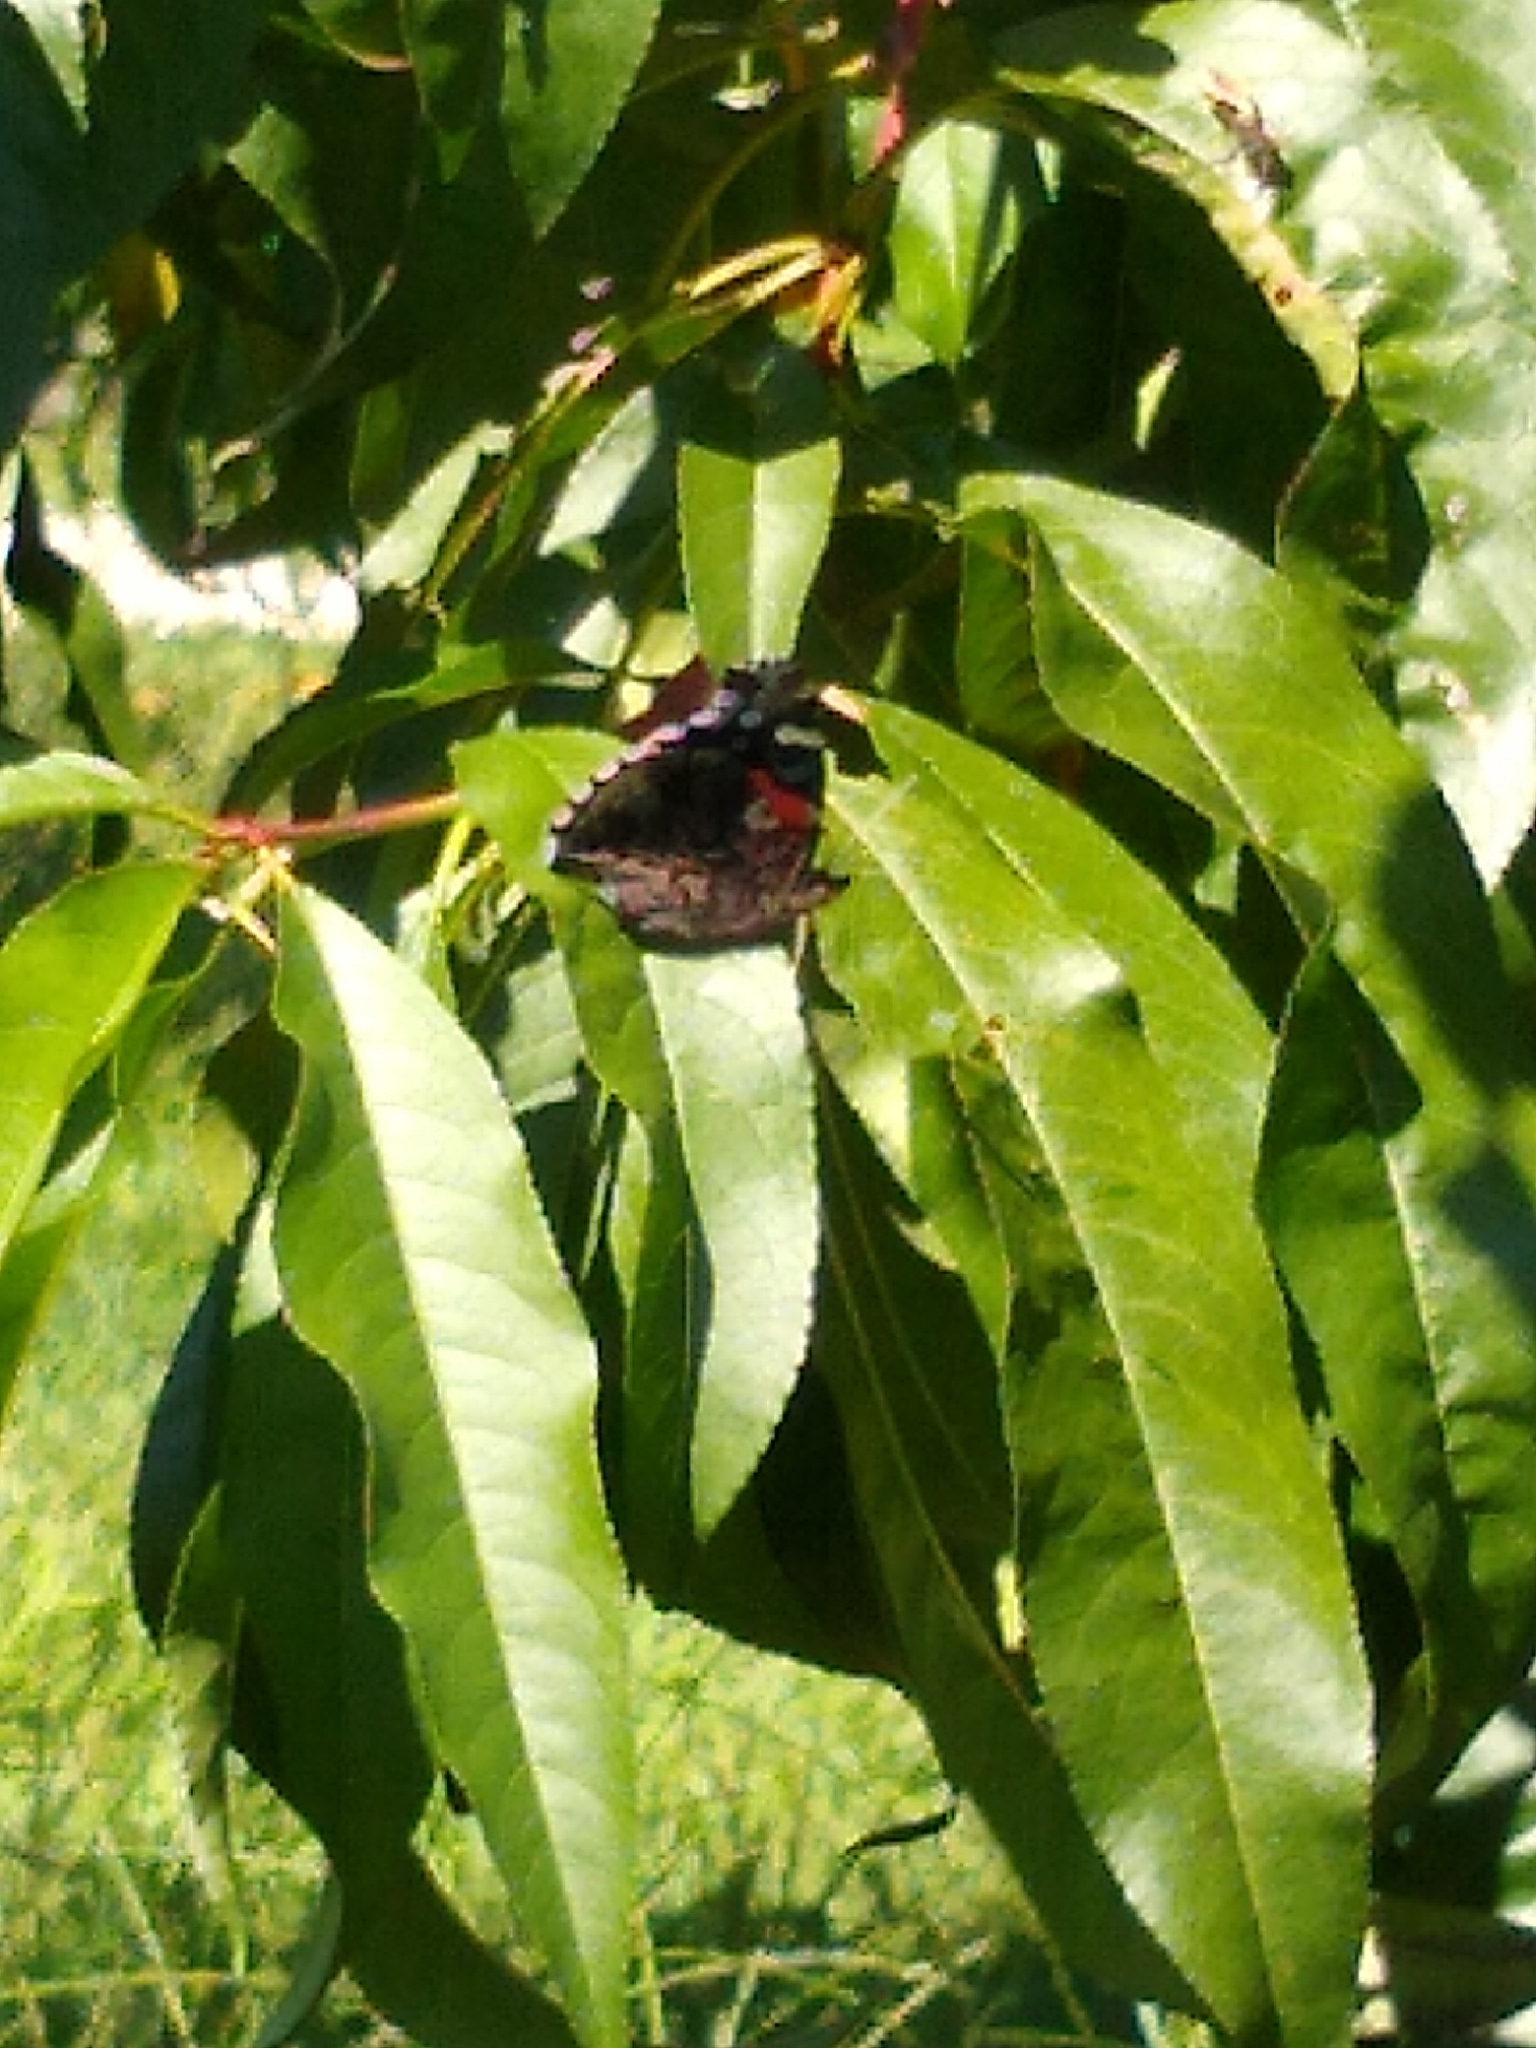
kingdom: Animalia
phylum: Arthropoda
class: Insecta
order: Lepidoptera
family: Nymphalidae
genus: Vanessa
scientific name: Vanessa atalanta
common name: Red admiral
